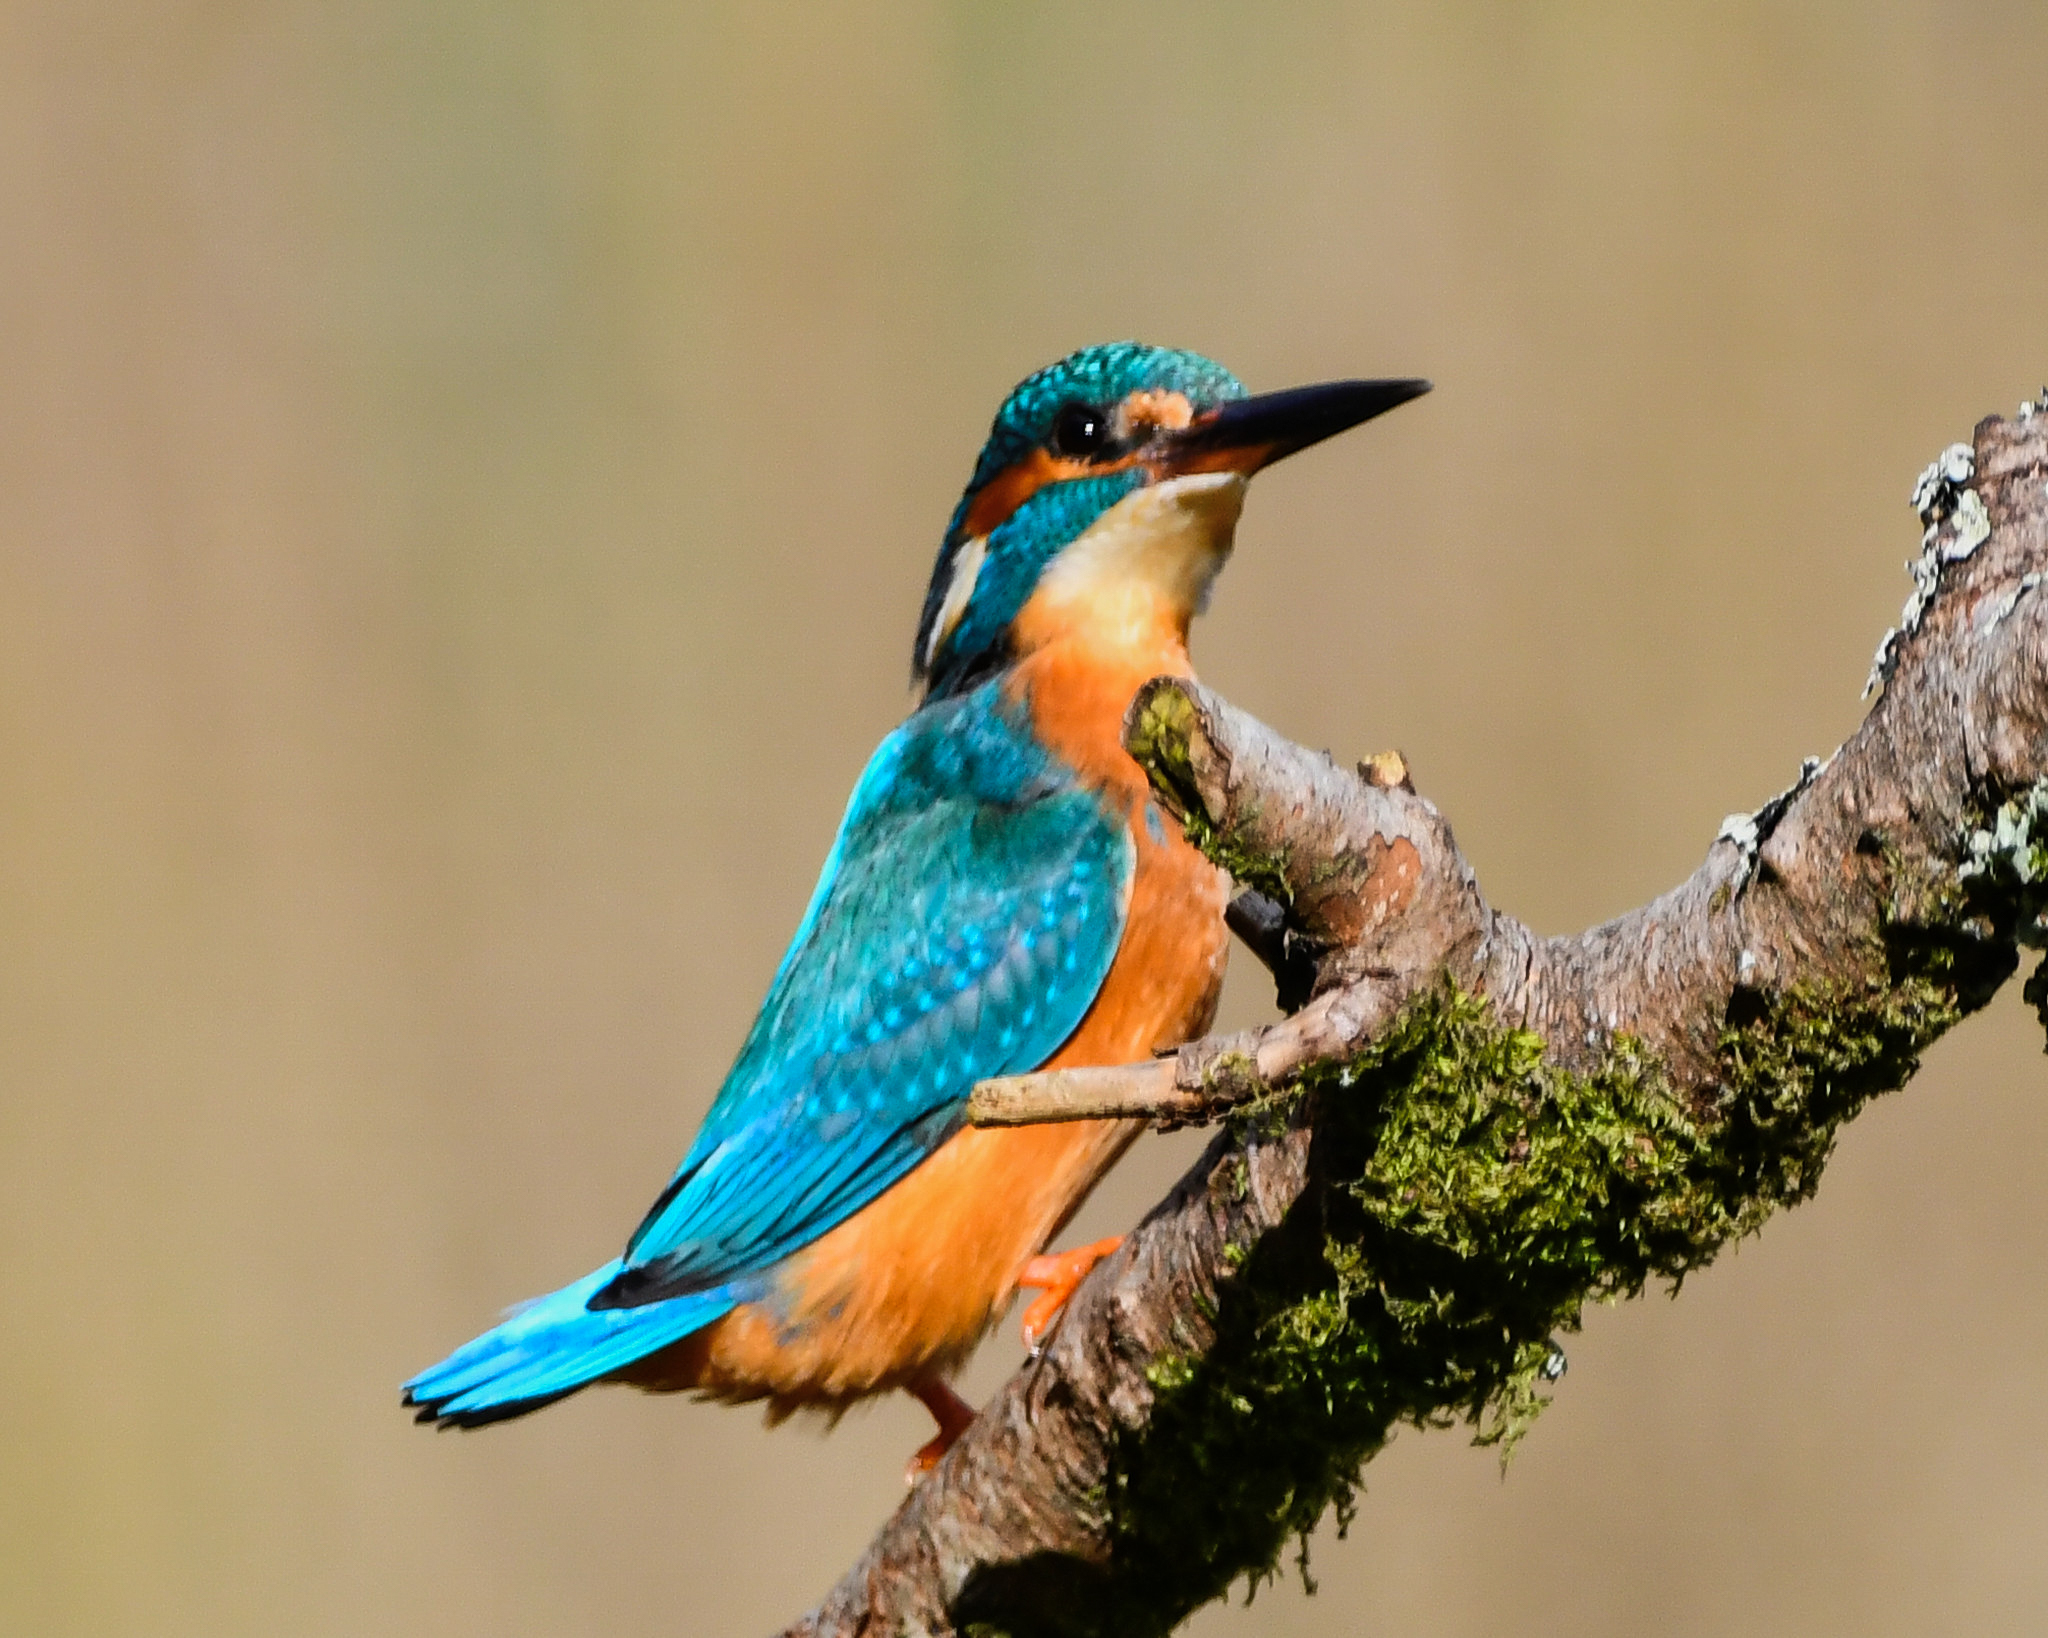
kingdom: Animalia
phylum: Chordata
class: Aves
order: Coraciiformes
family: Alcedinidae
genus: Alcedo
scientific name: Alcedo atthis
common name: Common kingfisher
